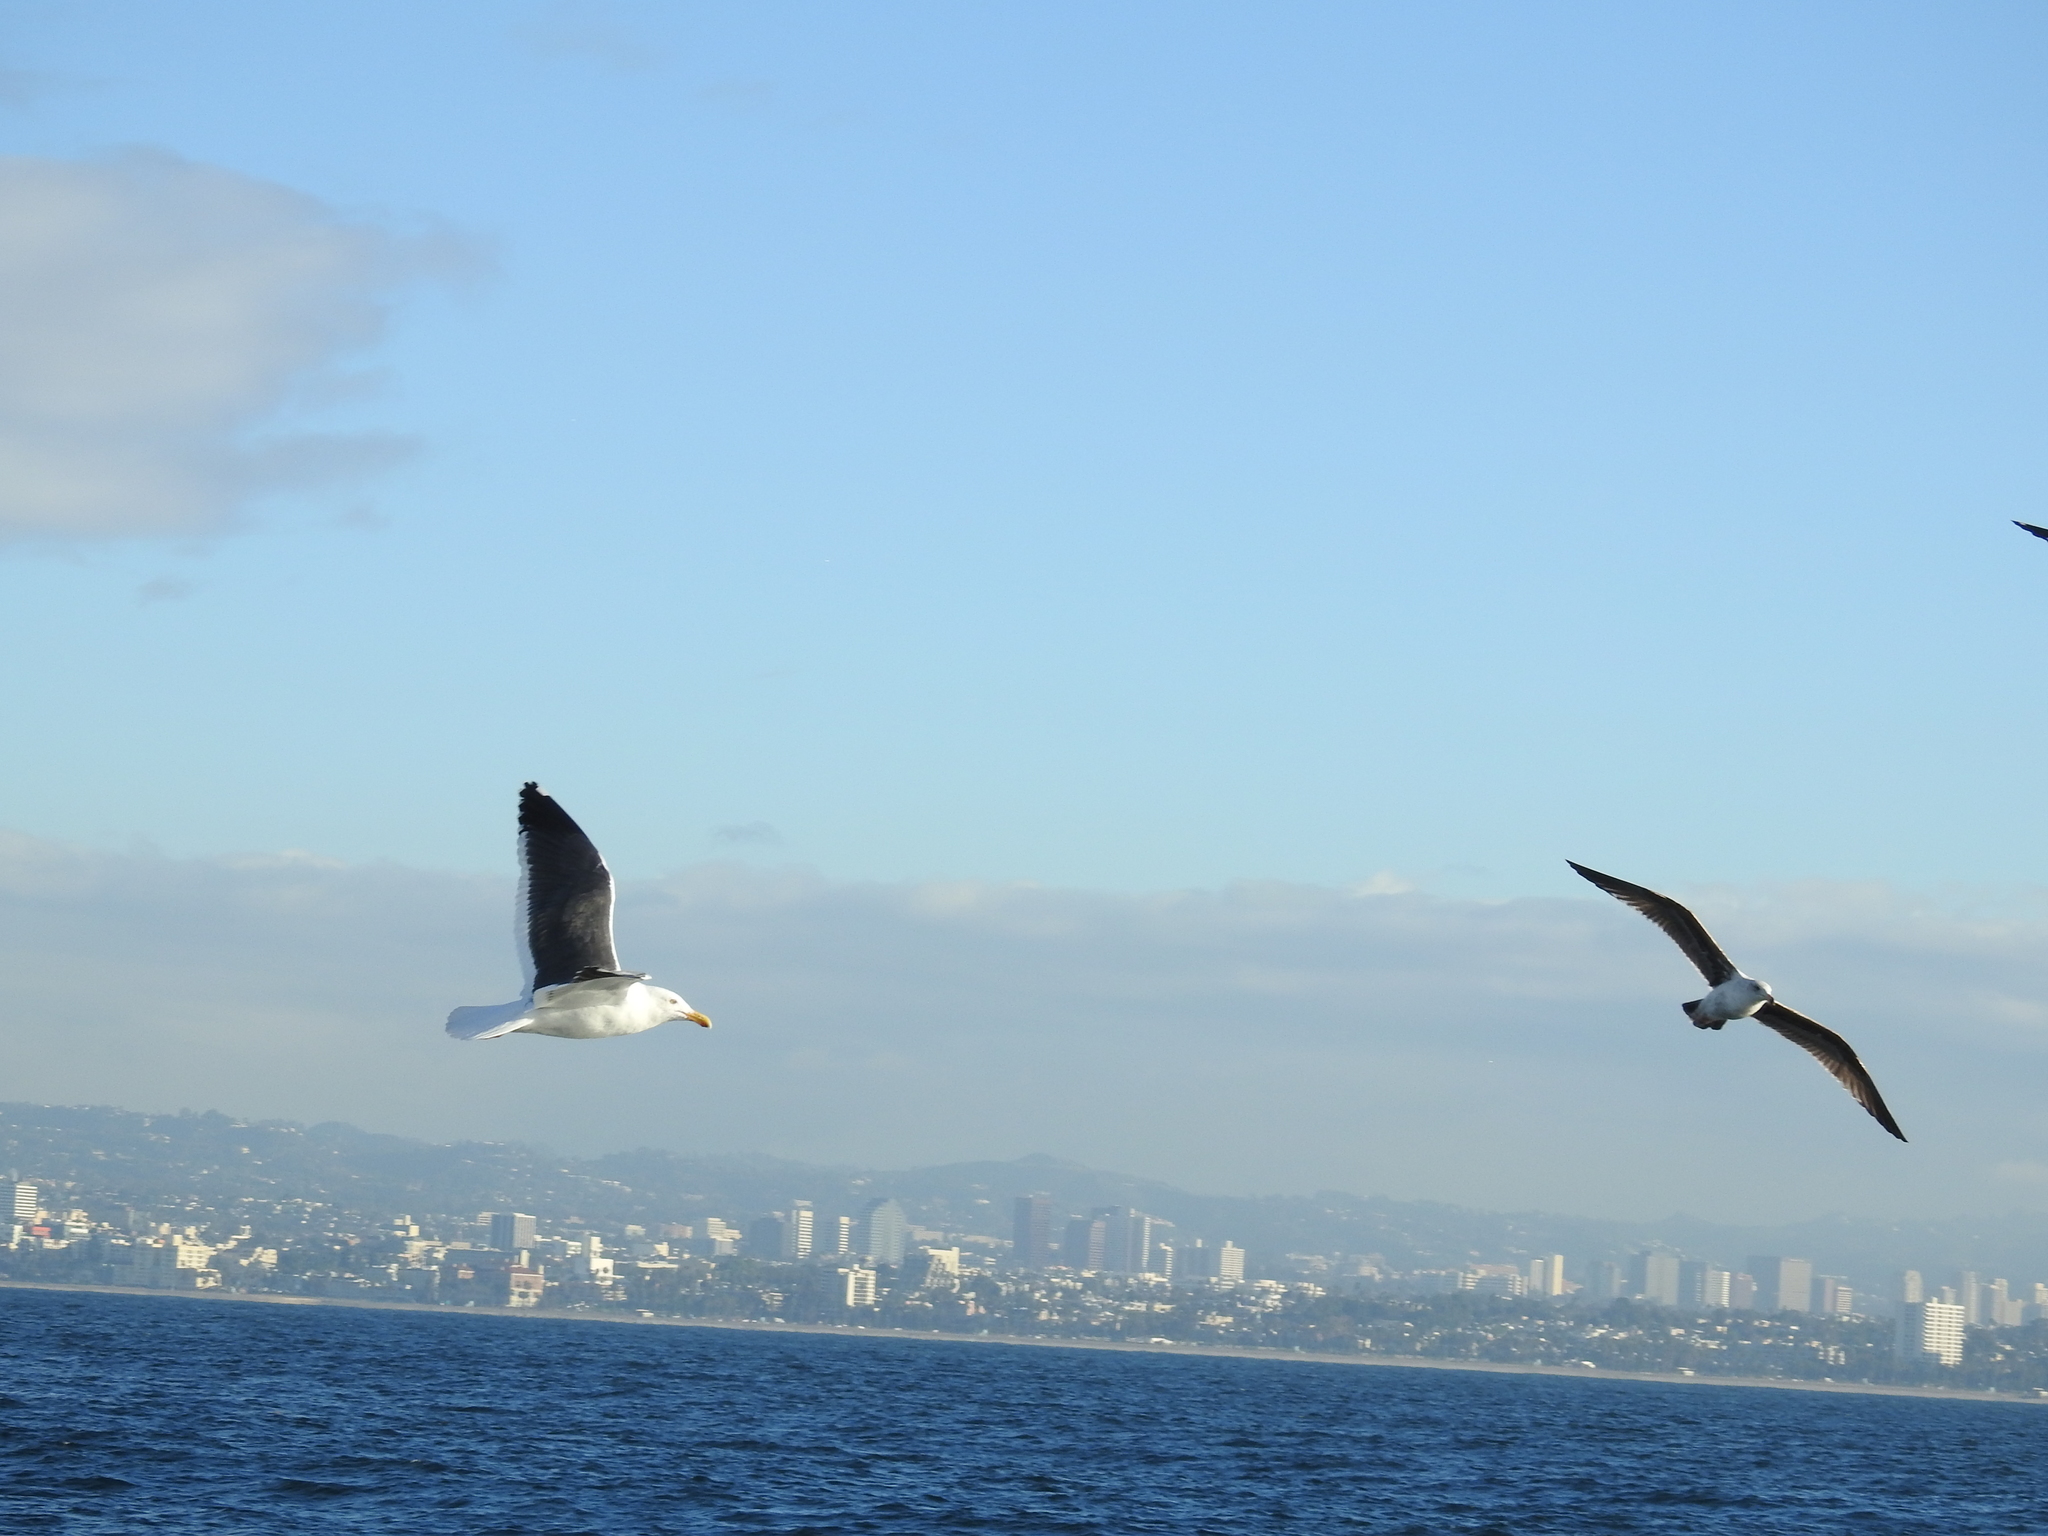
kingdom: Animalia
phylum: Chordata
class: Aves
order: Charadriiformes
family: Laridae
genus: Larus
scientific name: Larus occidentalis
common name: Western gull
